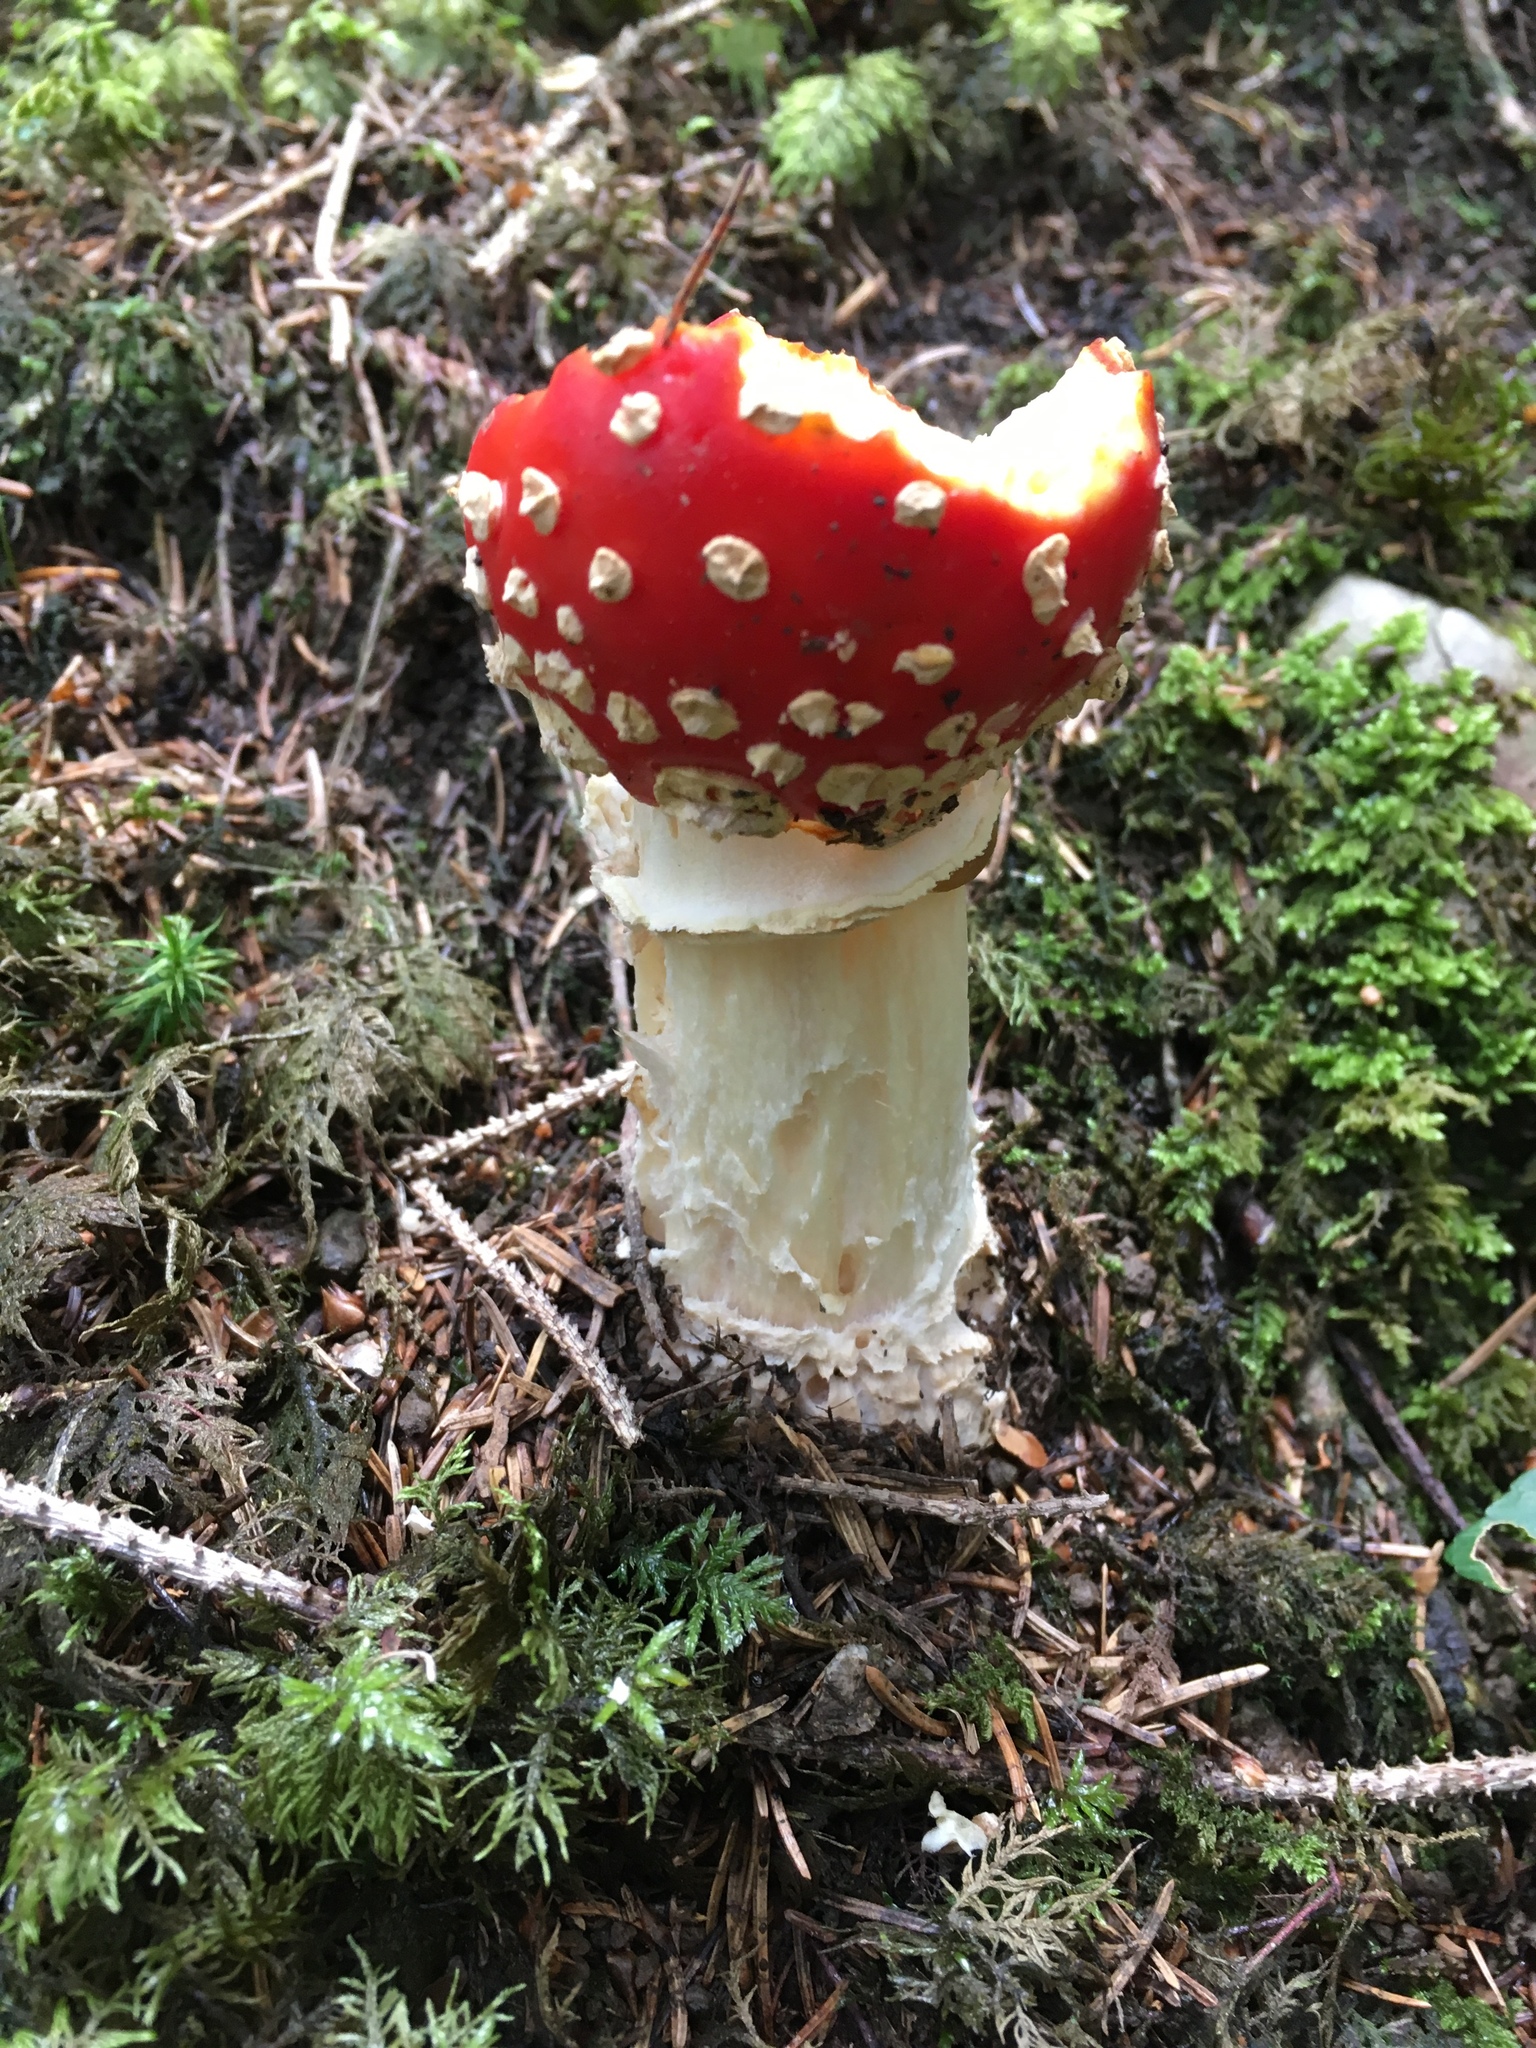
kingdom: Fungi
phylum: Basidiomycota
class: Agaricomycetes
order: Agaricales
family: Amanitaceae
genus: Amanita
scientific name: Amanita muscaria
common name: Fly agaric
